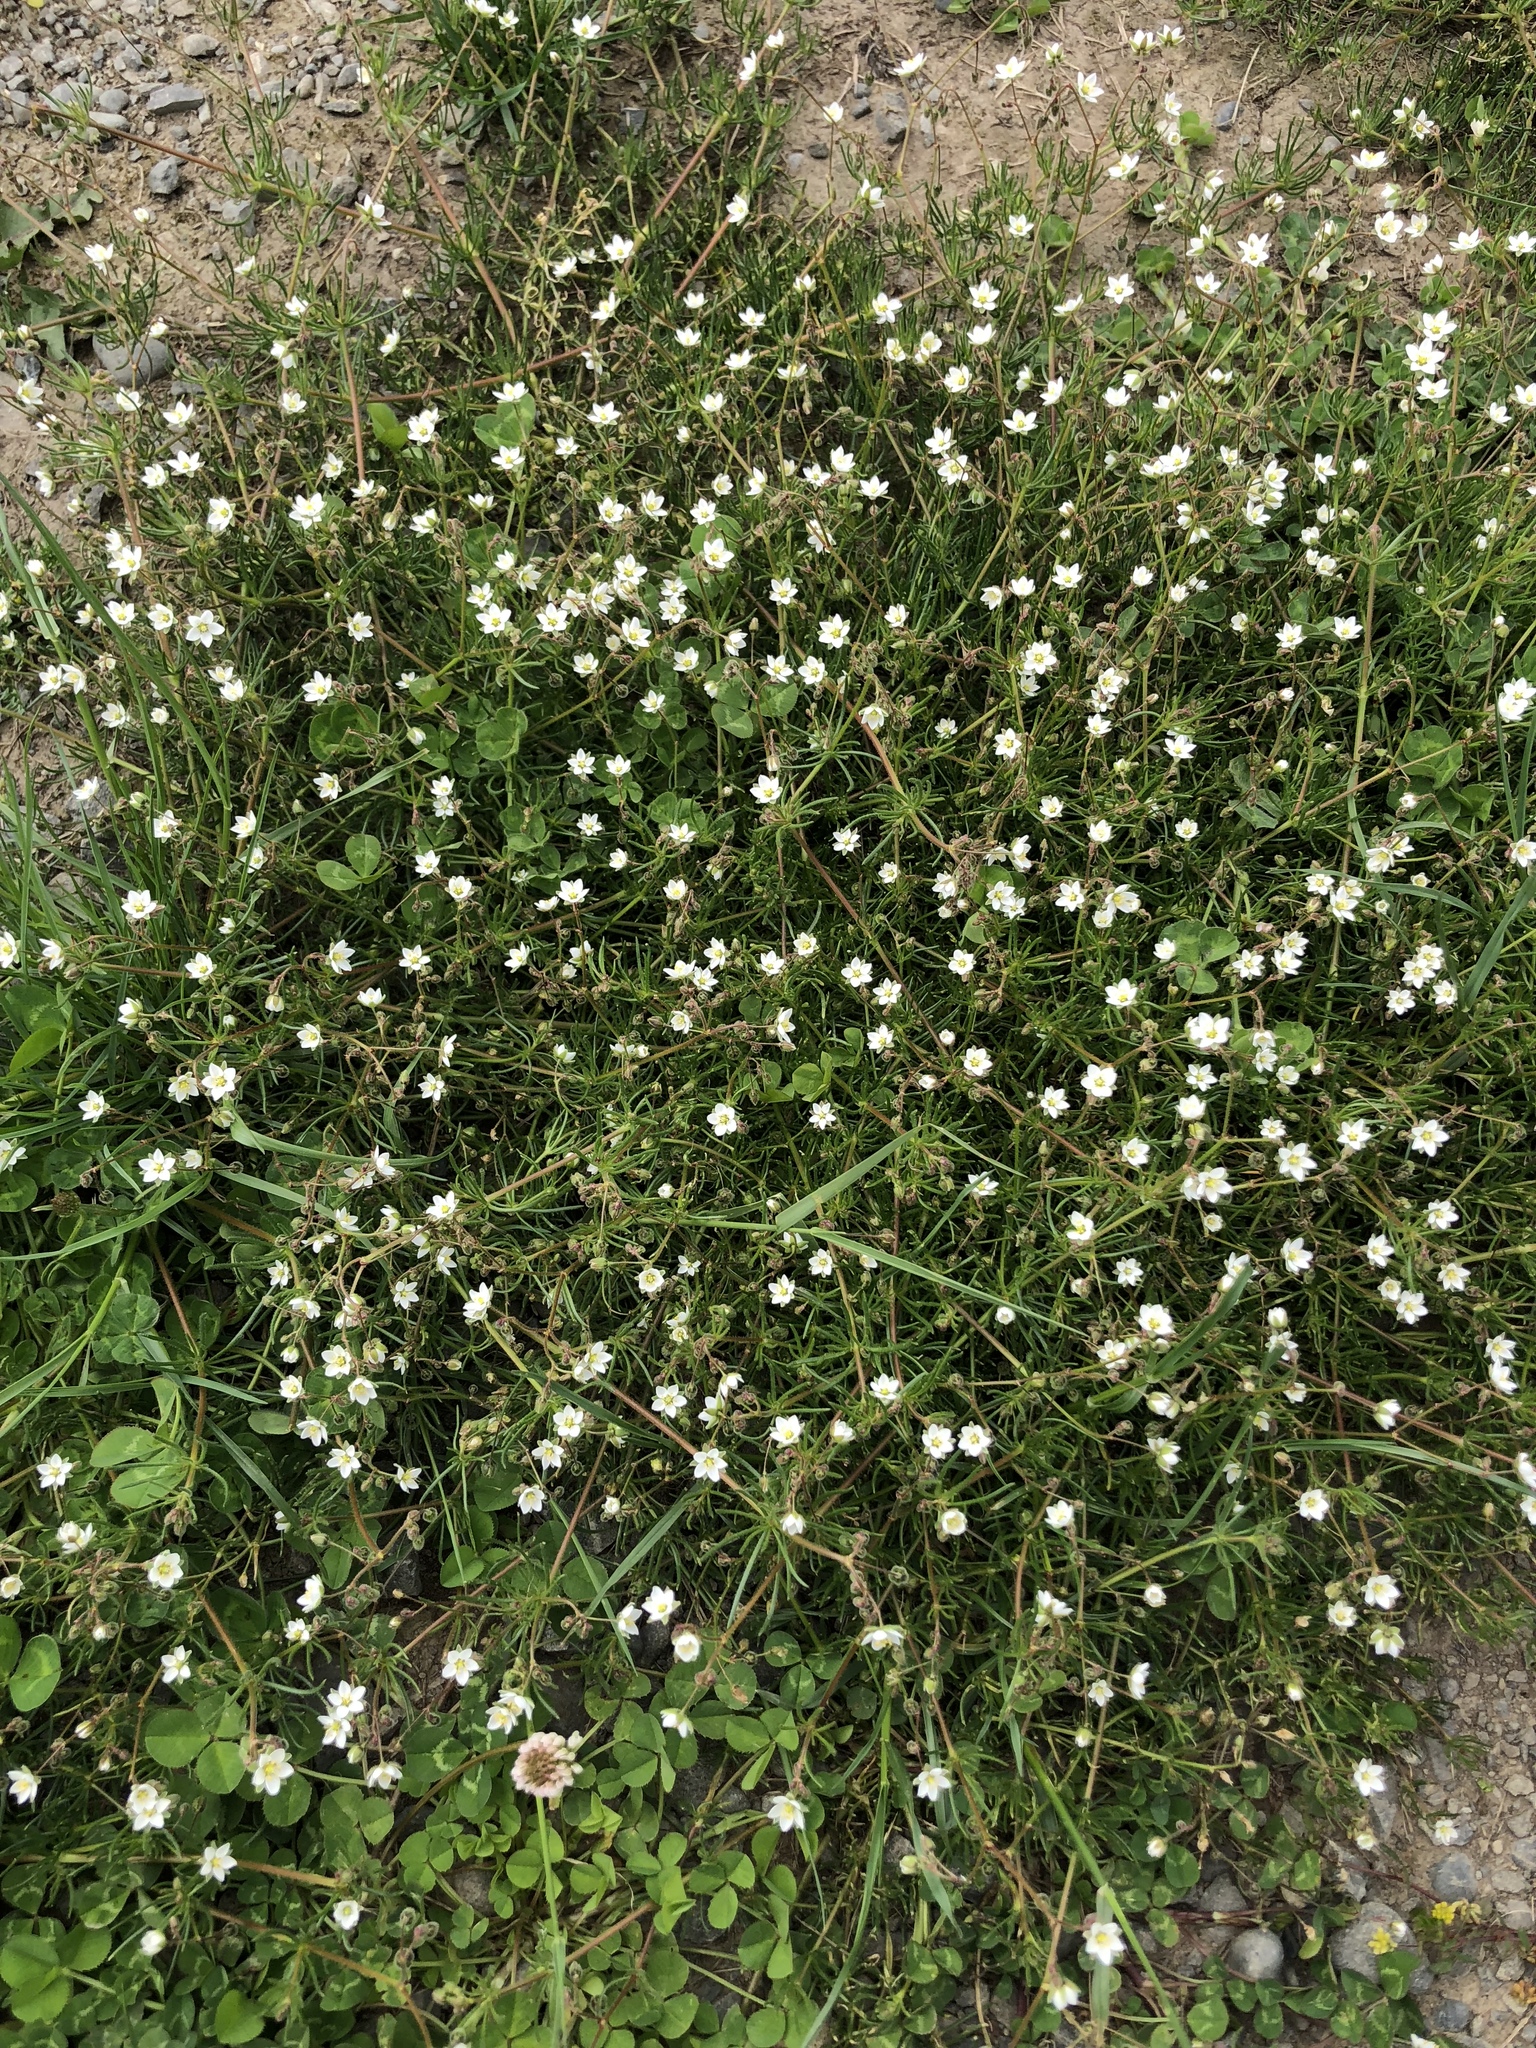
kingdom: Plantae
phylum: Tracheophyta
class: Magnoliopsida
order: Caryophyllales
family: Caryophyllaceae
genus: Spergula
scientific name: Spergula arvensis
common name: Corn spurrey
